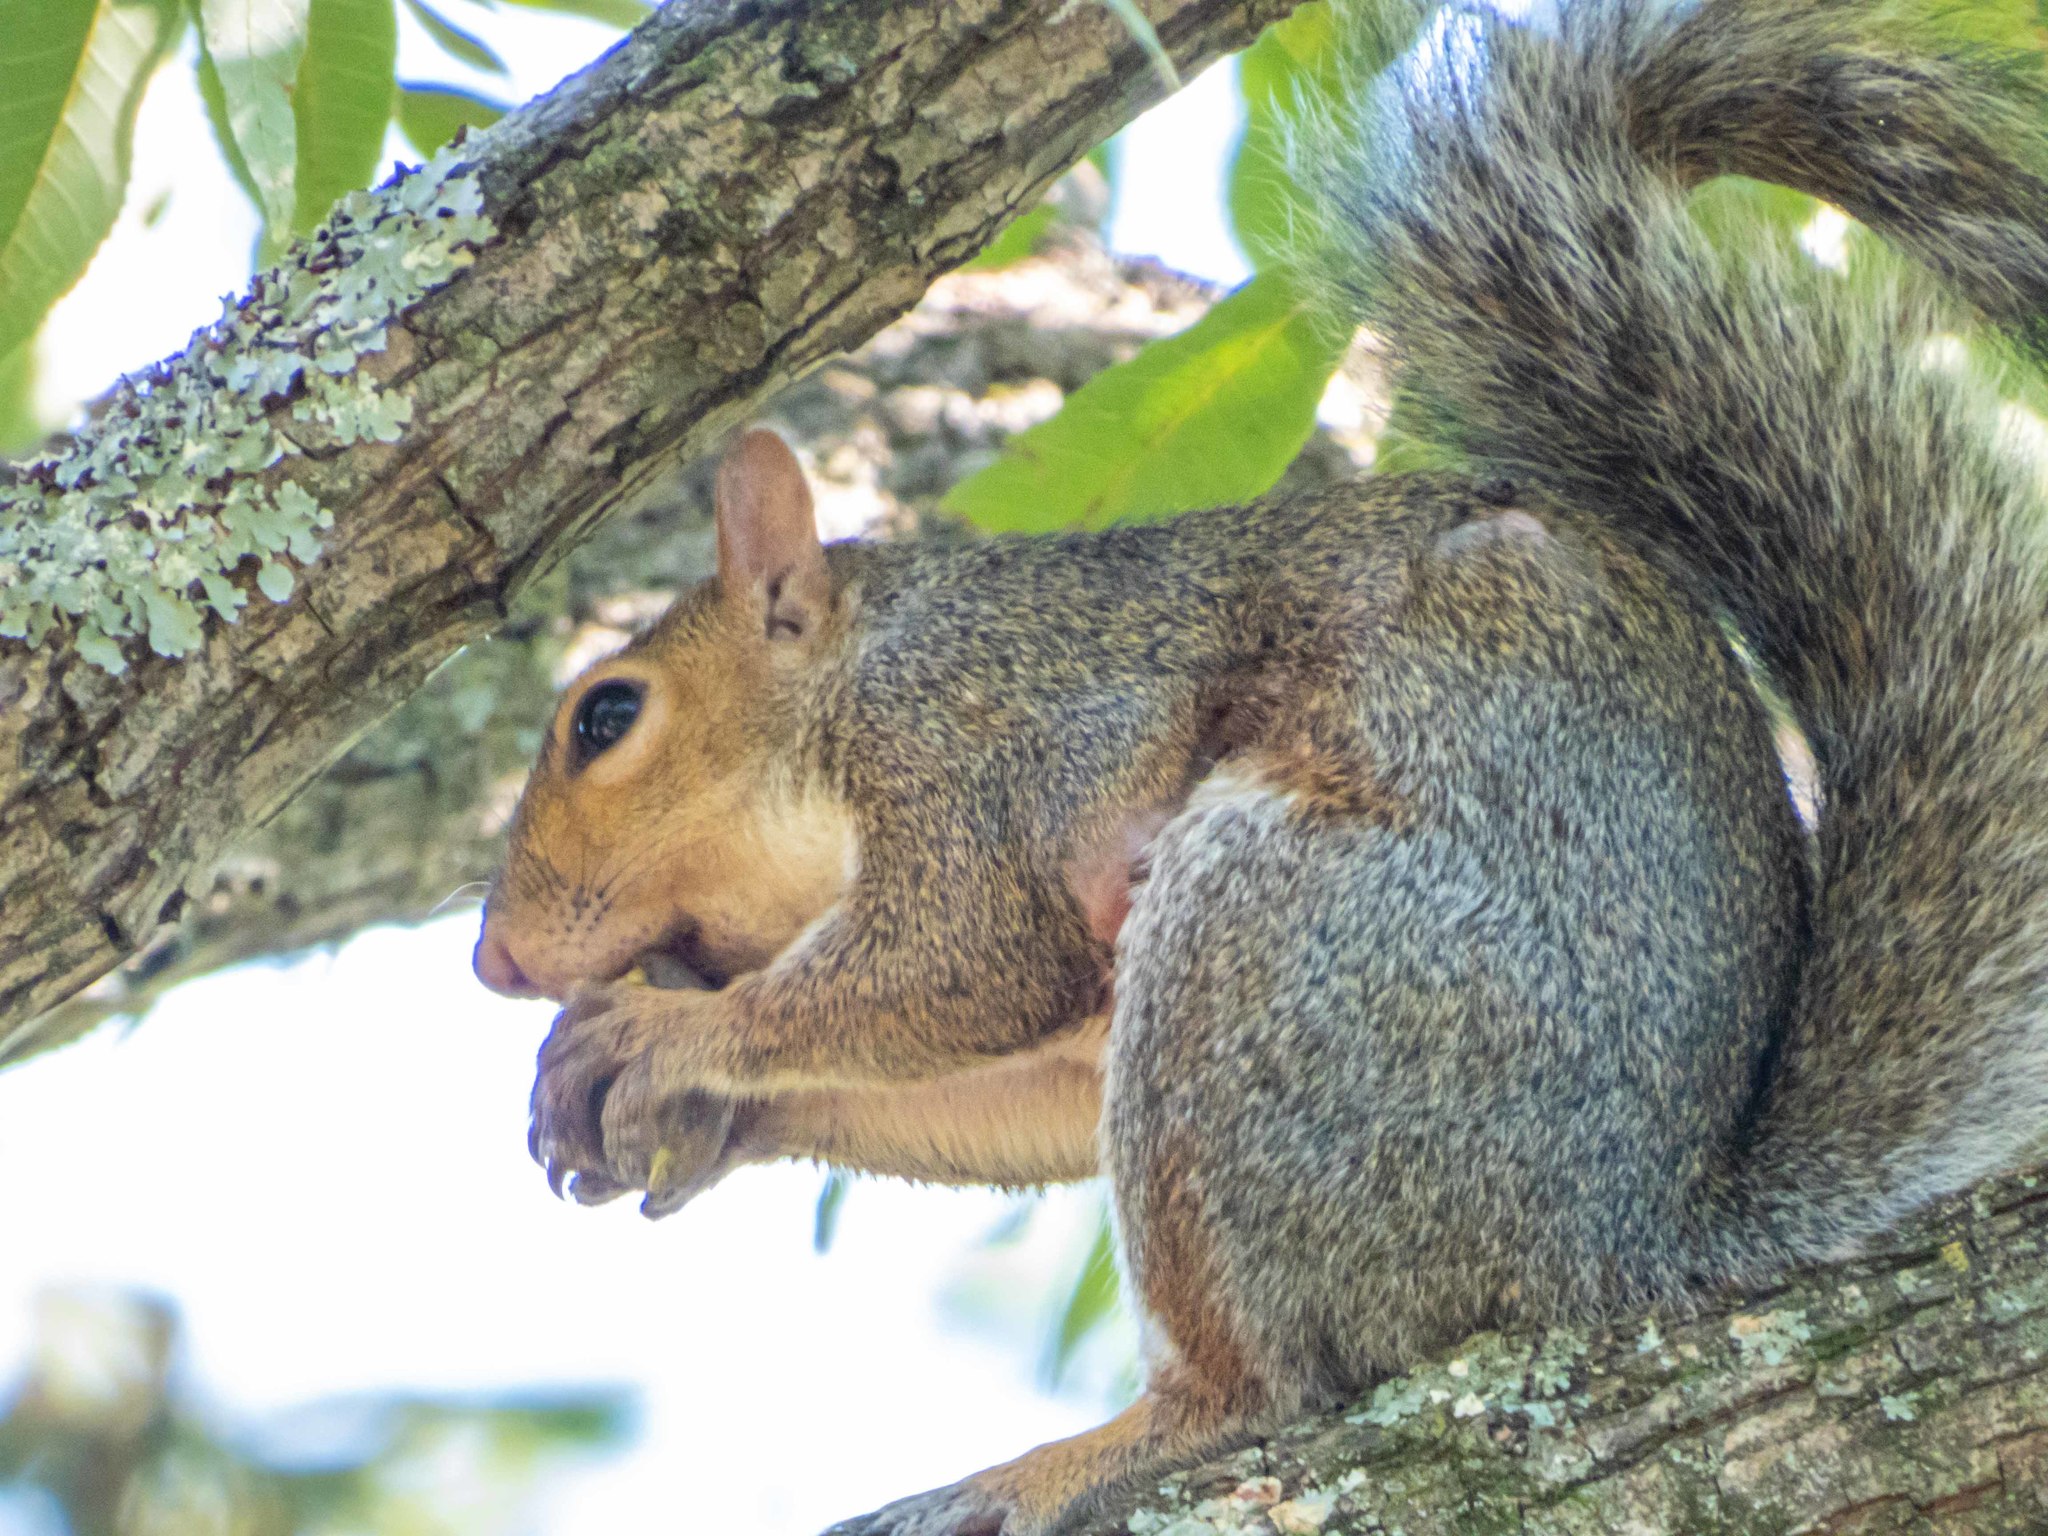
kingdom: Animalia
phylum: Chordata
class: Mammalia
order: Rodentia
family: Sciuridae
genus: Sciurus
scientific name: Sciurus carolinensis
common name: Eastern gray squirrel
